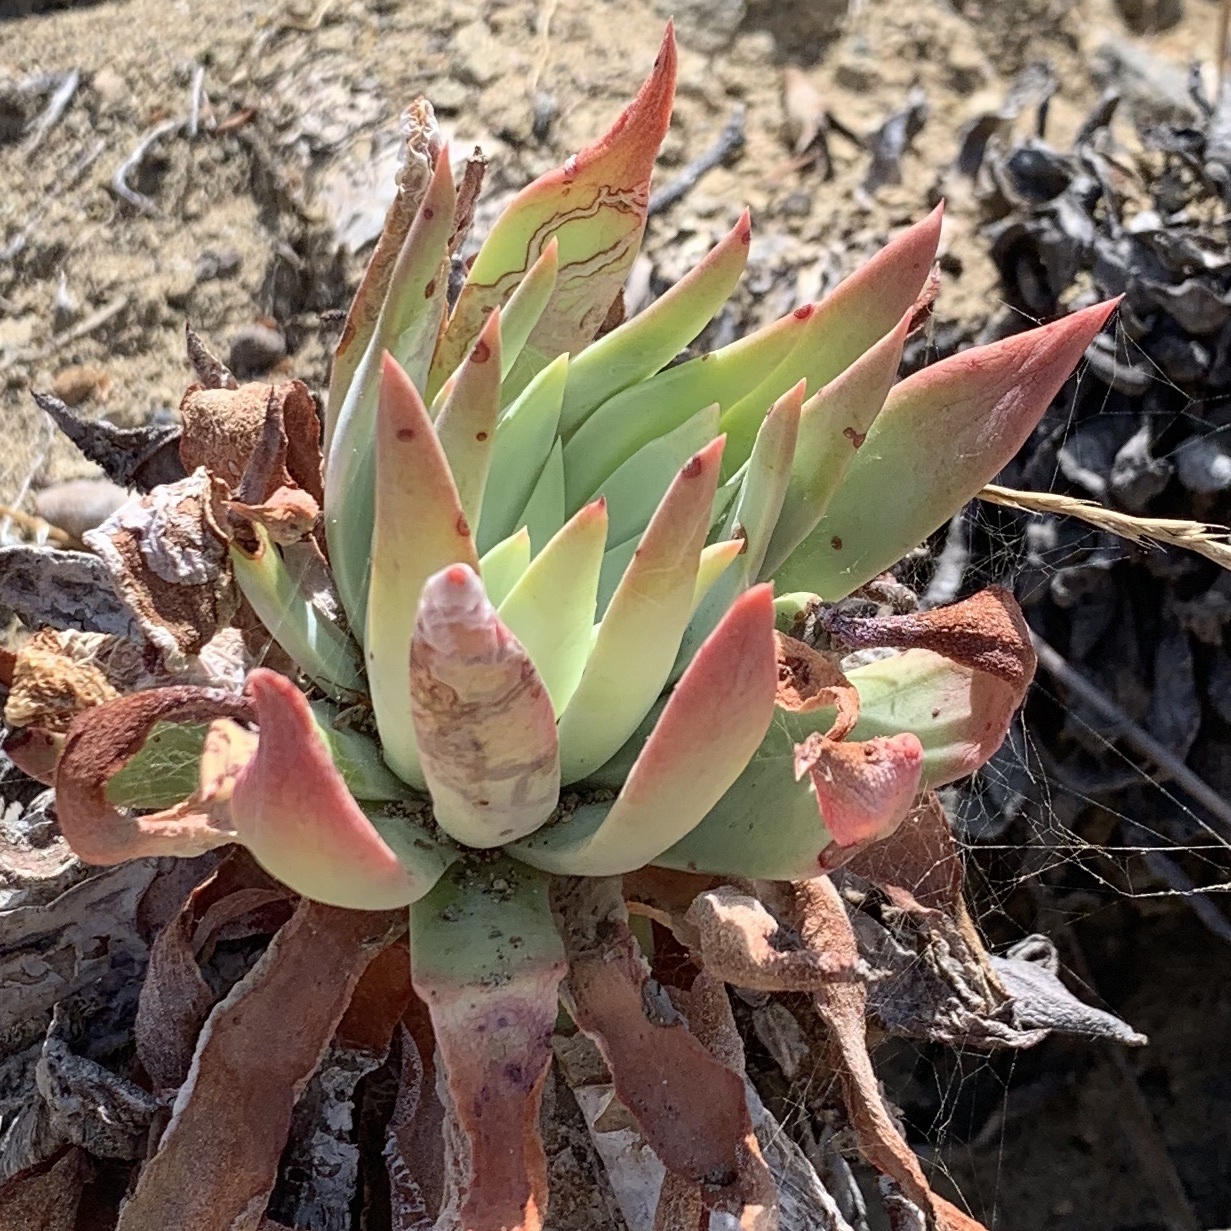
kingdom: Plantae
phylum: Tracheophyta
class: Magnoliopsida
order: Saxifragales
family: Crassulaceae
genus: Dudleya
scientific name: Dudleya candelabrum
